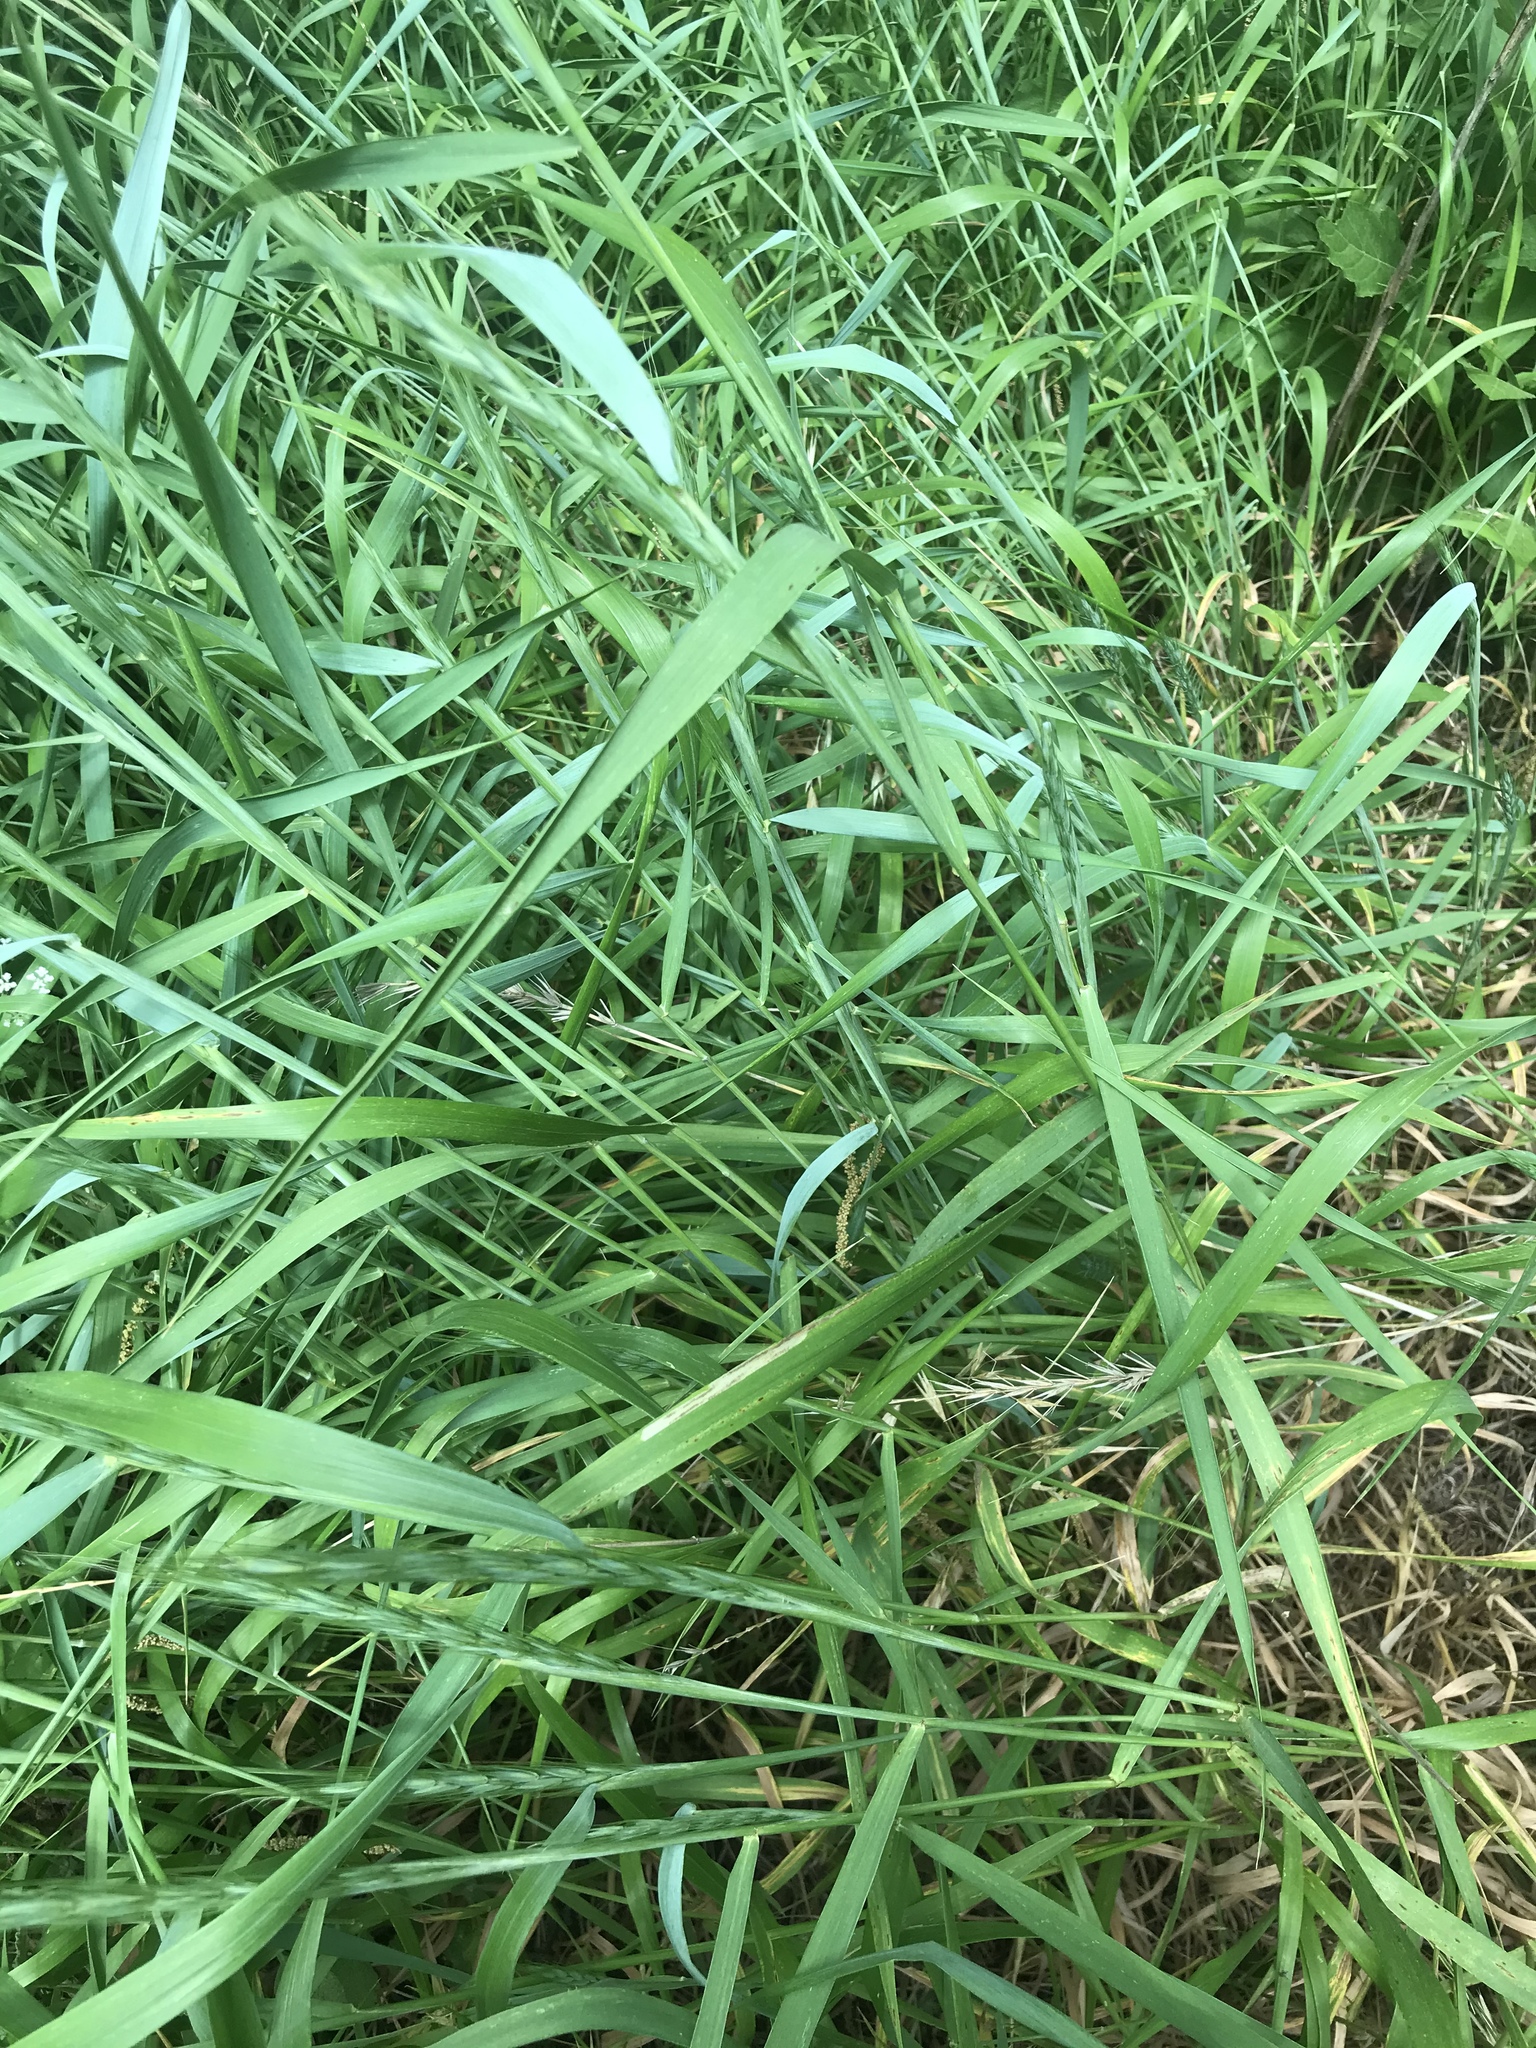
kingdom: Plantae
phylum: Tracheophyta
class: Liliopsida
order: Poales
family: Poaceae
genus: Elymus
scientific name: Elymus interruptus
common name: Southwestern wild rye
